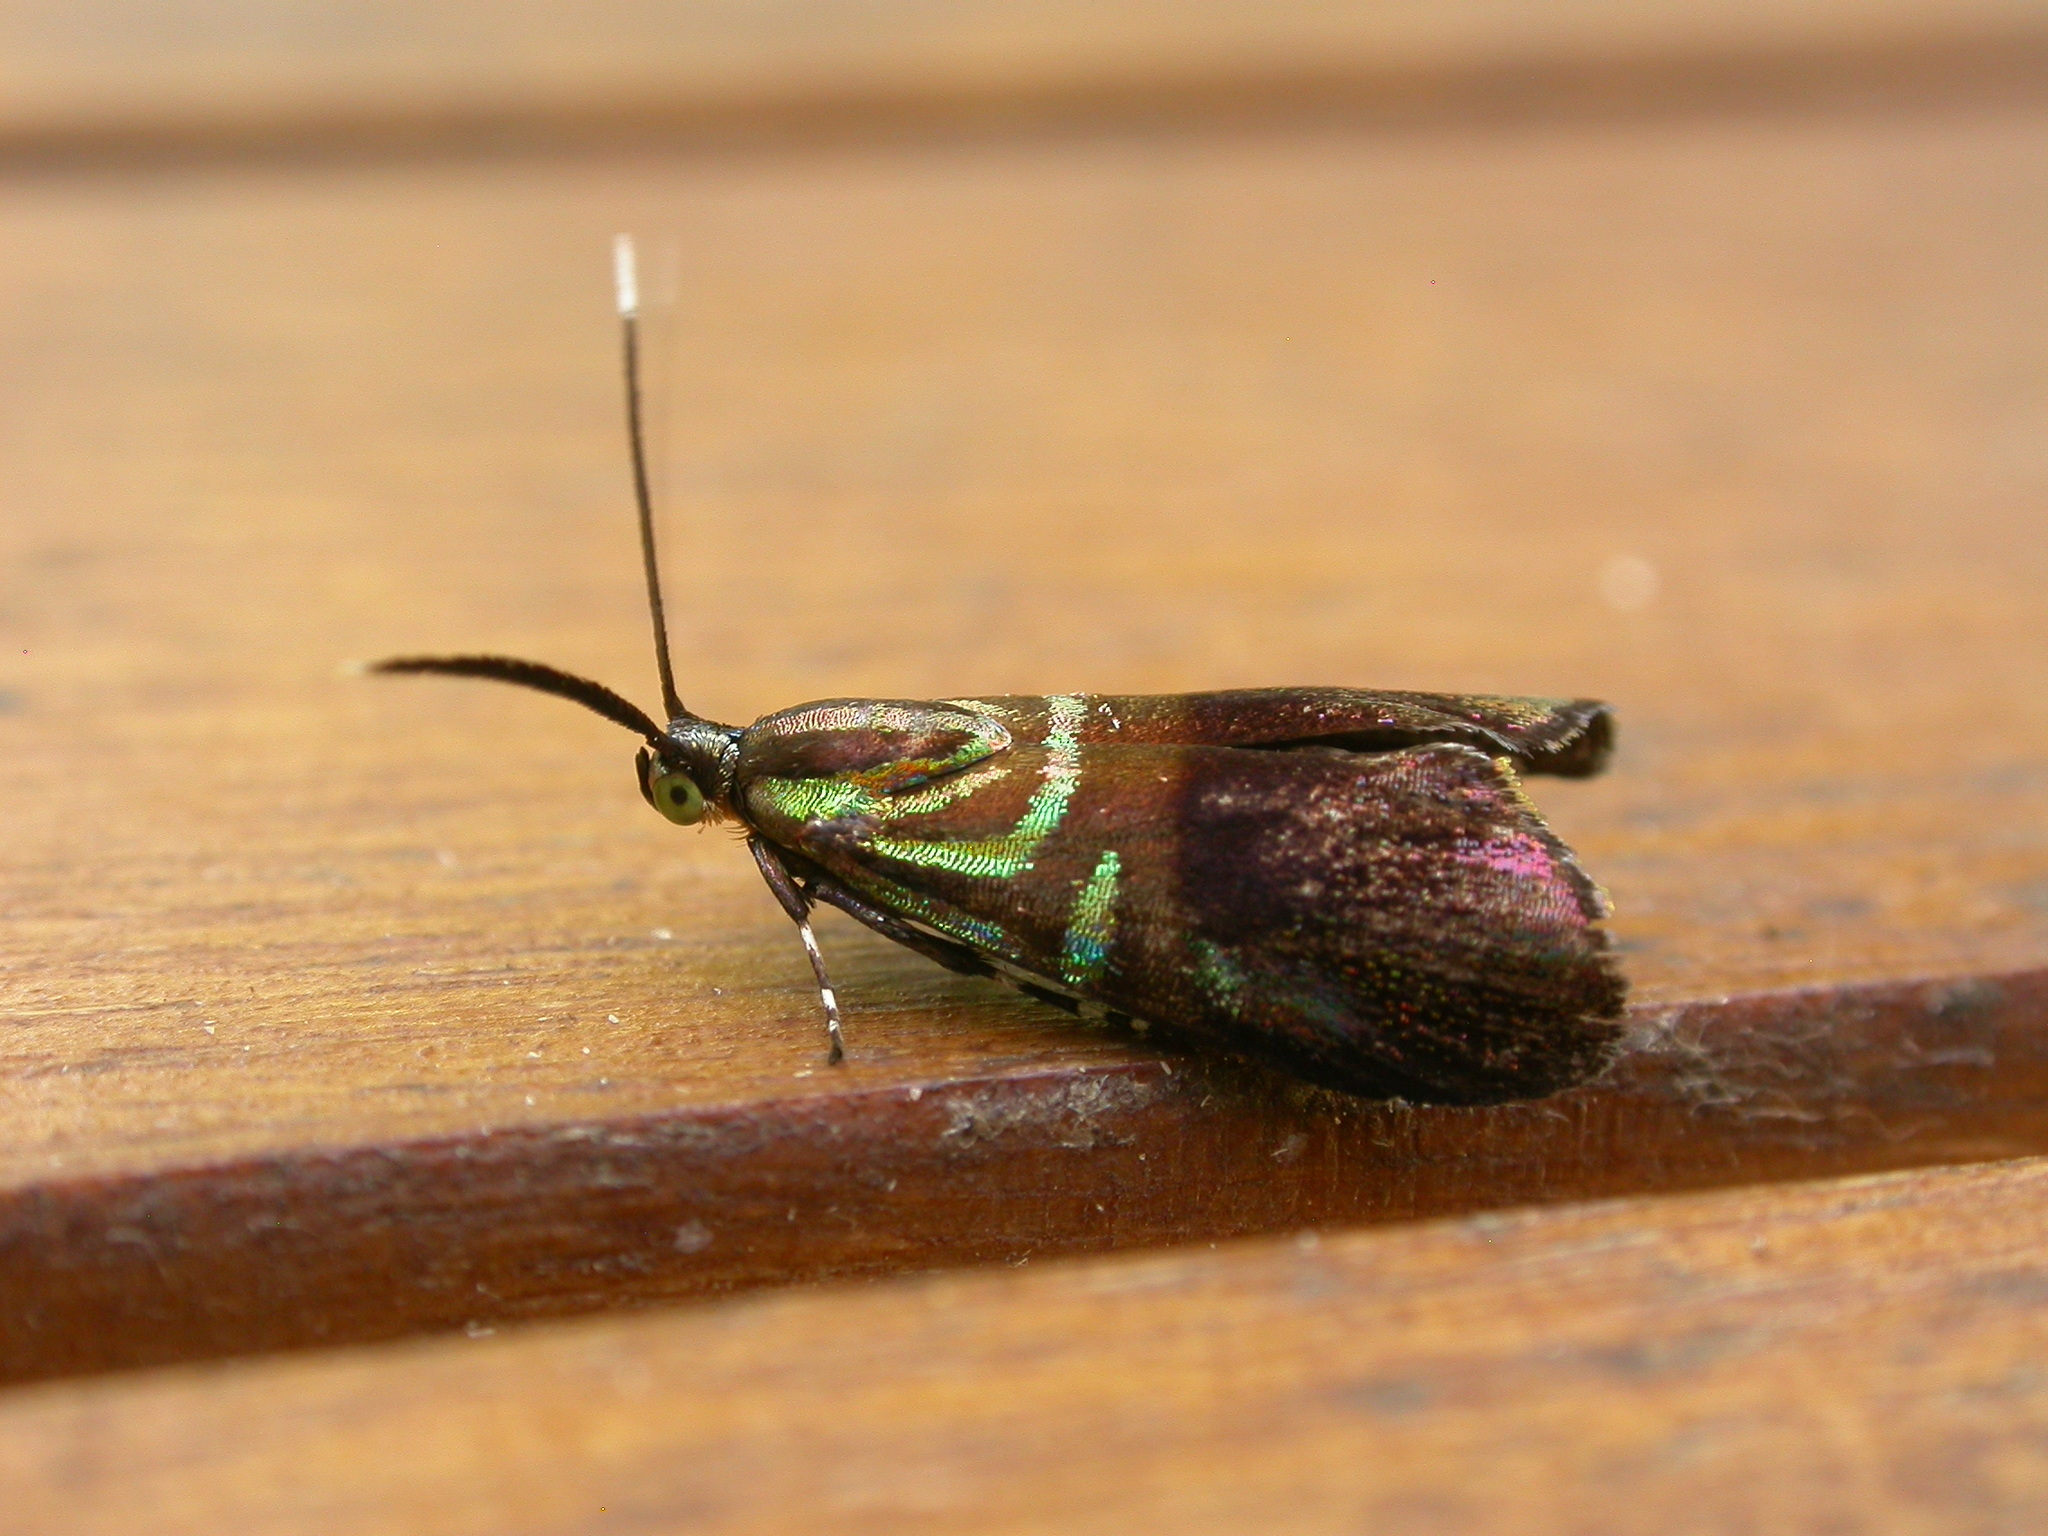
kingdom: Animalia
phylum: Arthropoda
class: Insecta
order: Lepidoptera
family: Choreutidae
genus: Saptha
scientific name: Saptha exanthista
